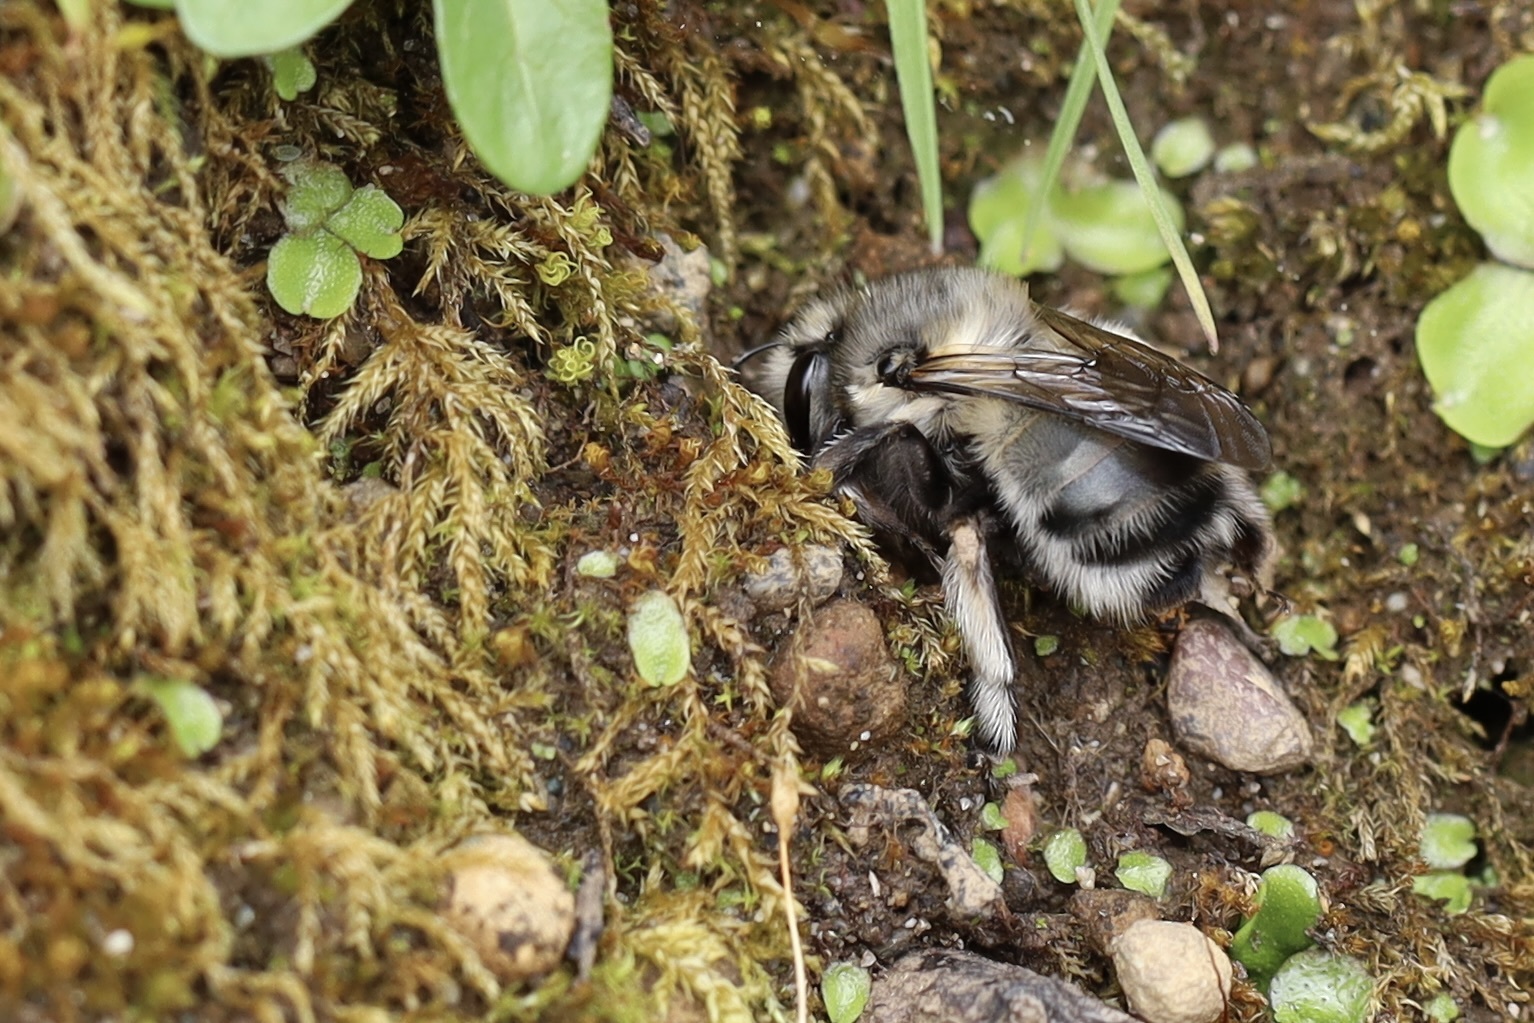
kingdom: Animalia
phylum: Arthropoda
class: Insecta
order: Hymenoptera
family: Apidae
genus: Anthophora
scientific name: Anthophora pacifica
